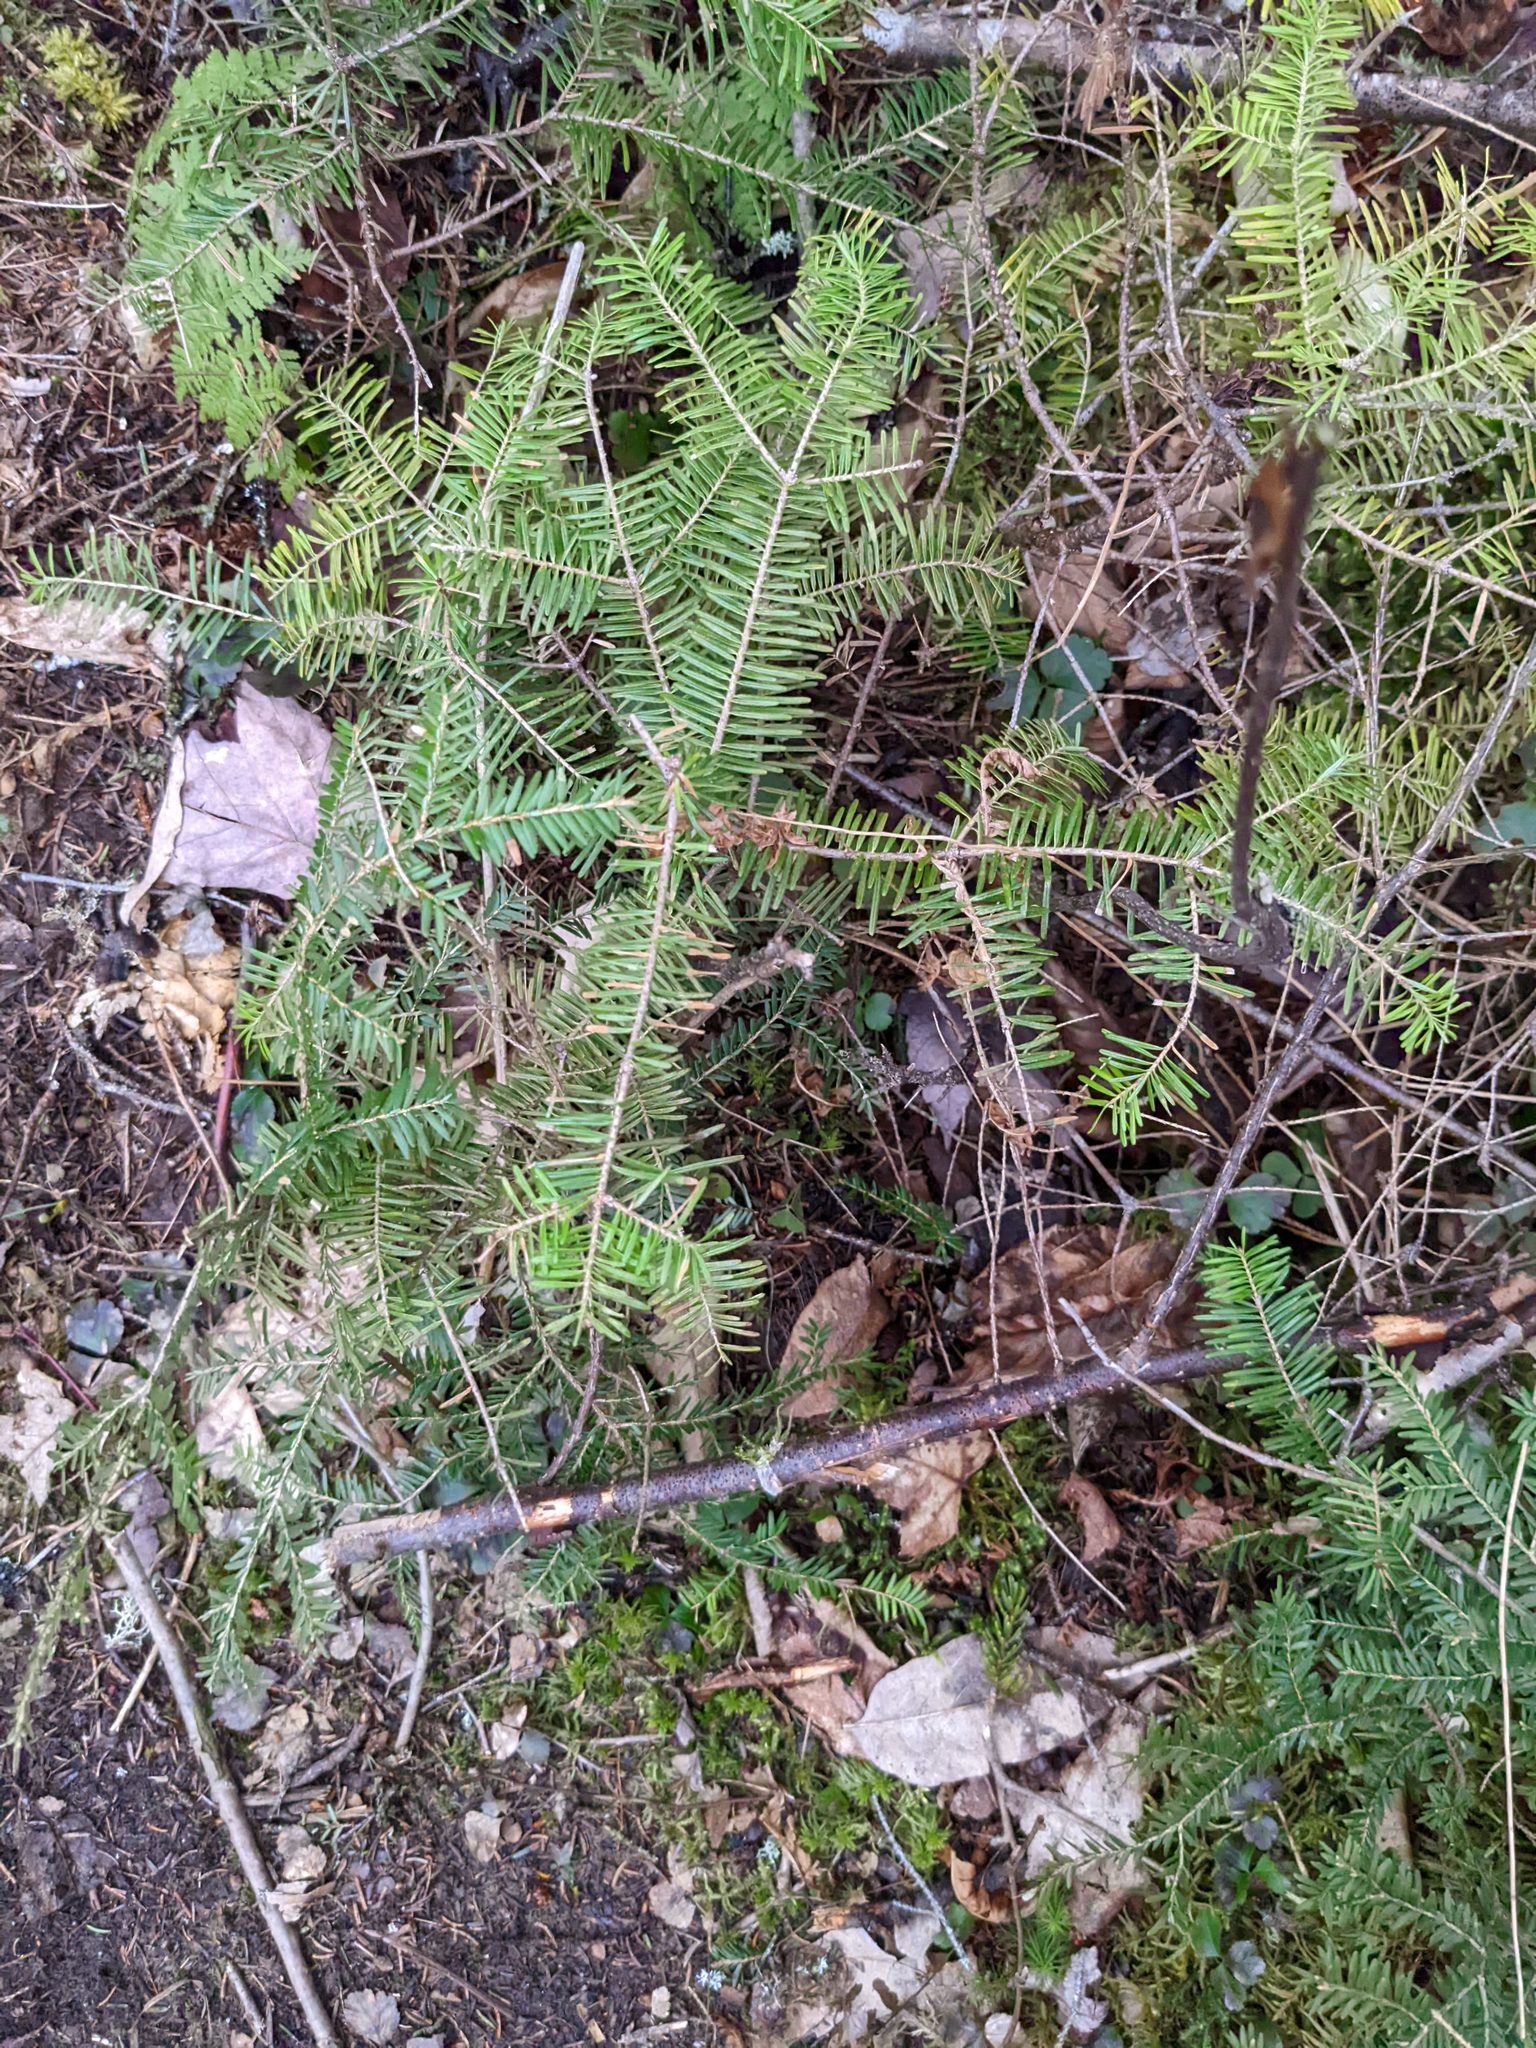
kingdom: Plantae
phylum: Tracheophyta
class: Pinopsida
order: Pinales
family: Pinaceae
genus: Abies
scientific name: Abies balsamea
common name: Balsam fir
